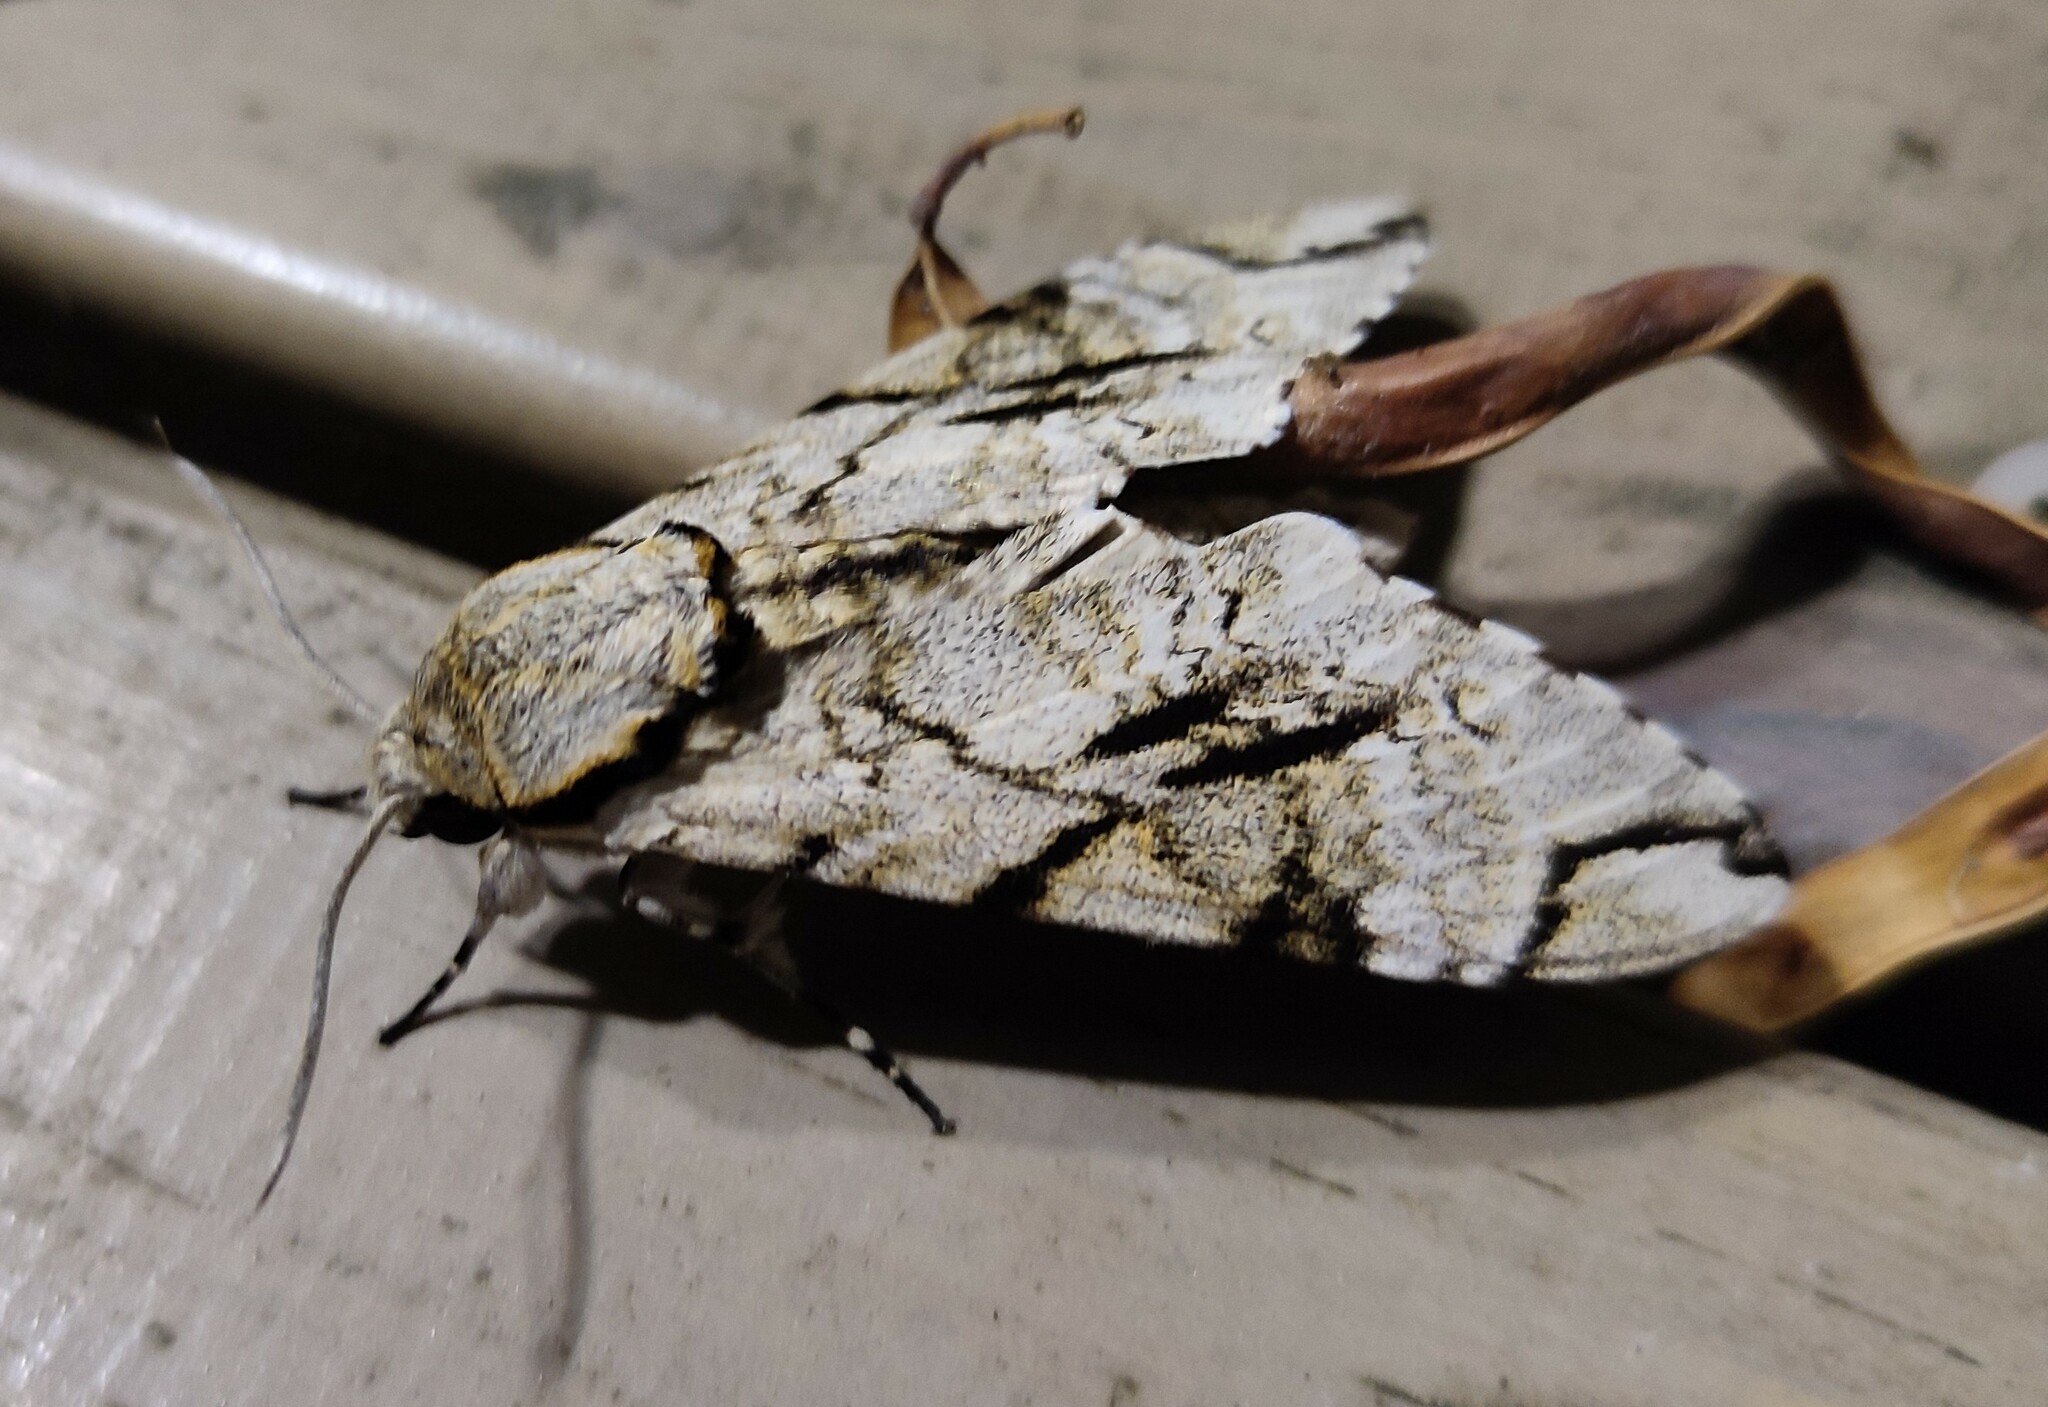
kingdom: Animalia
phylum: Arthropoda
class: Insecta
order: Lepidoptera
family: Sphingidae
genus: Macropoliana
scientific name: Macropoliana gessi
